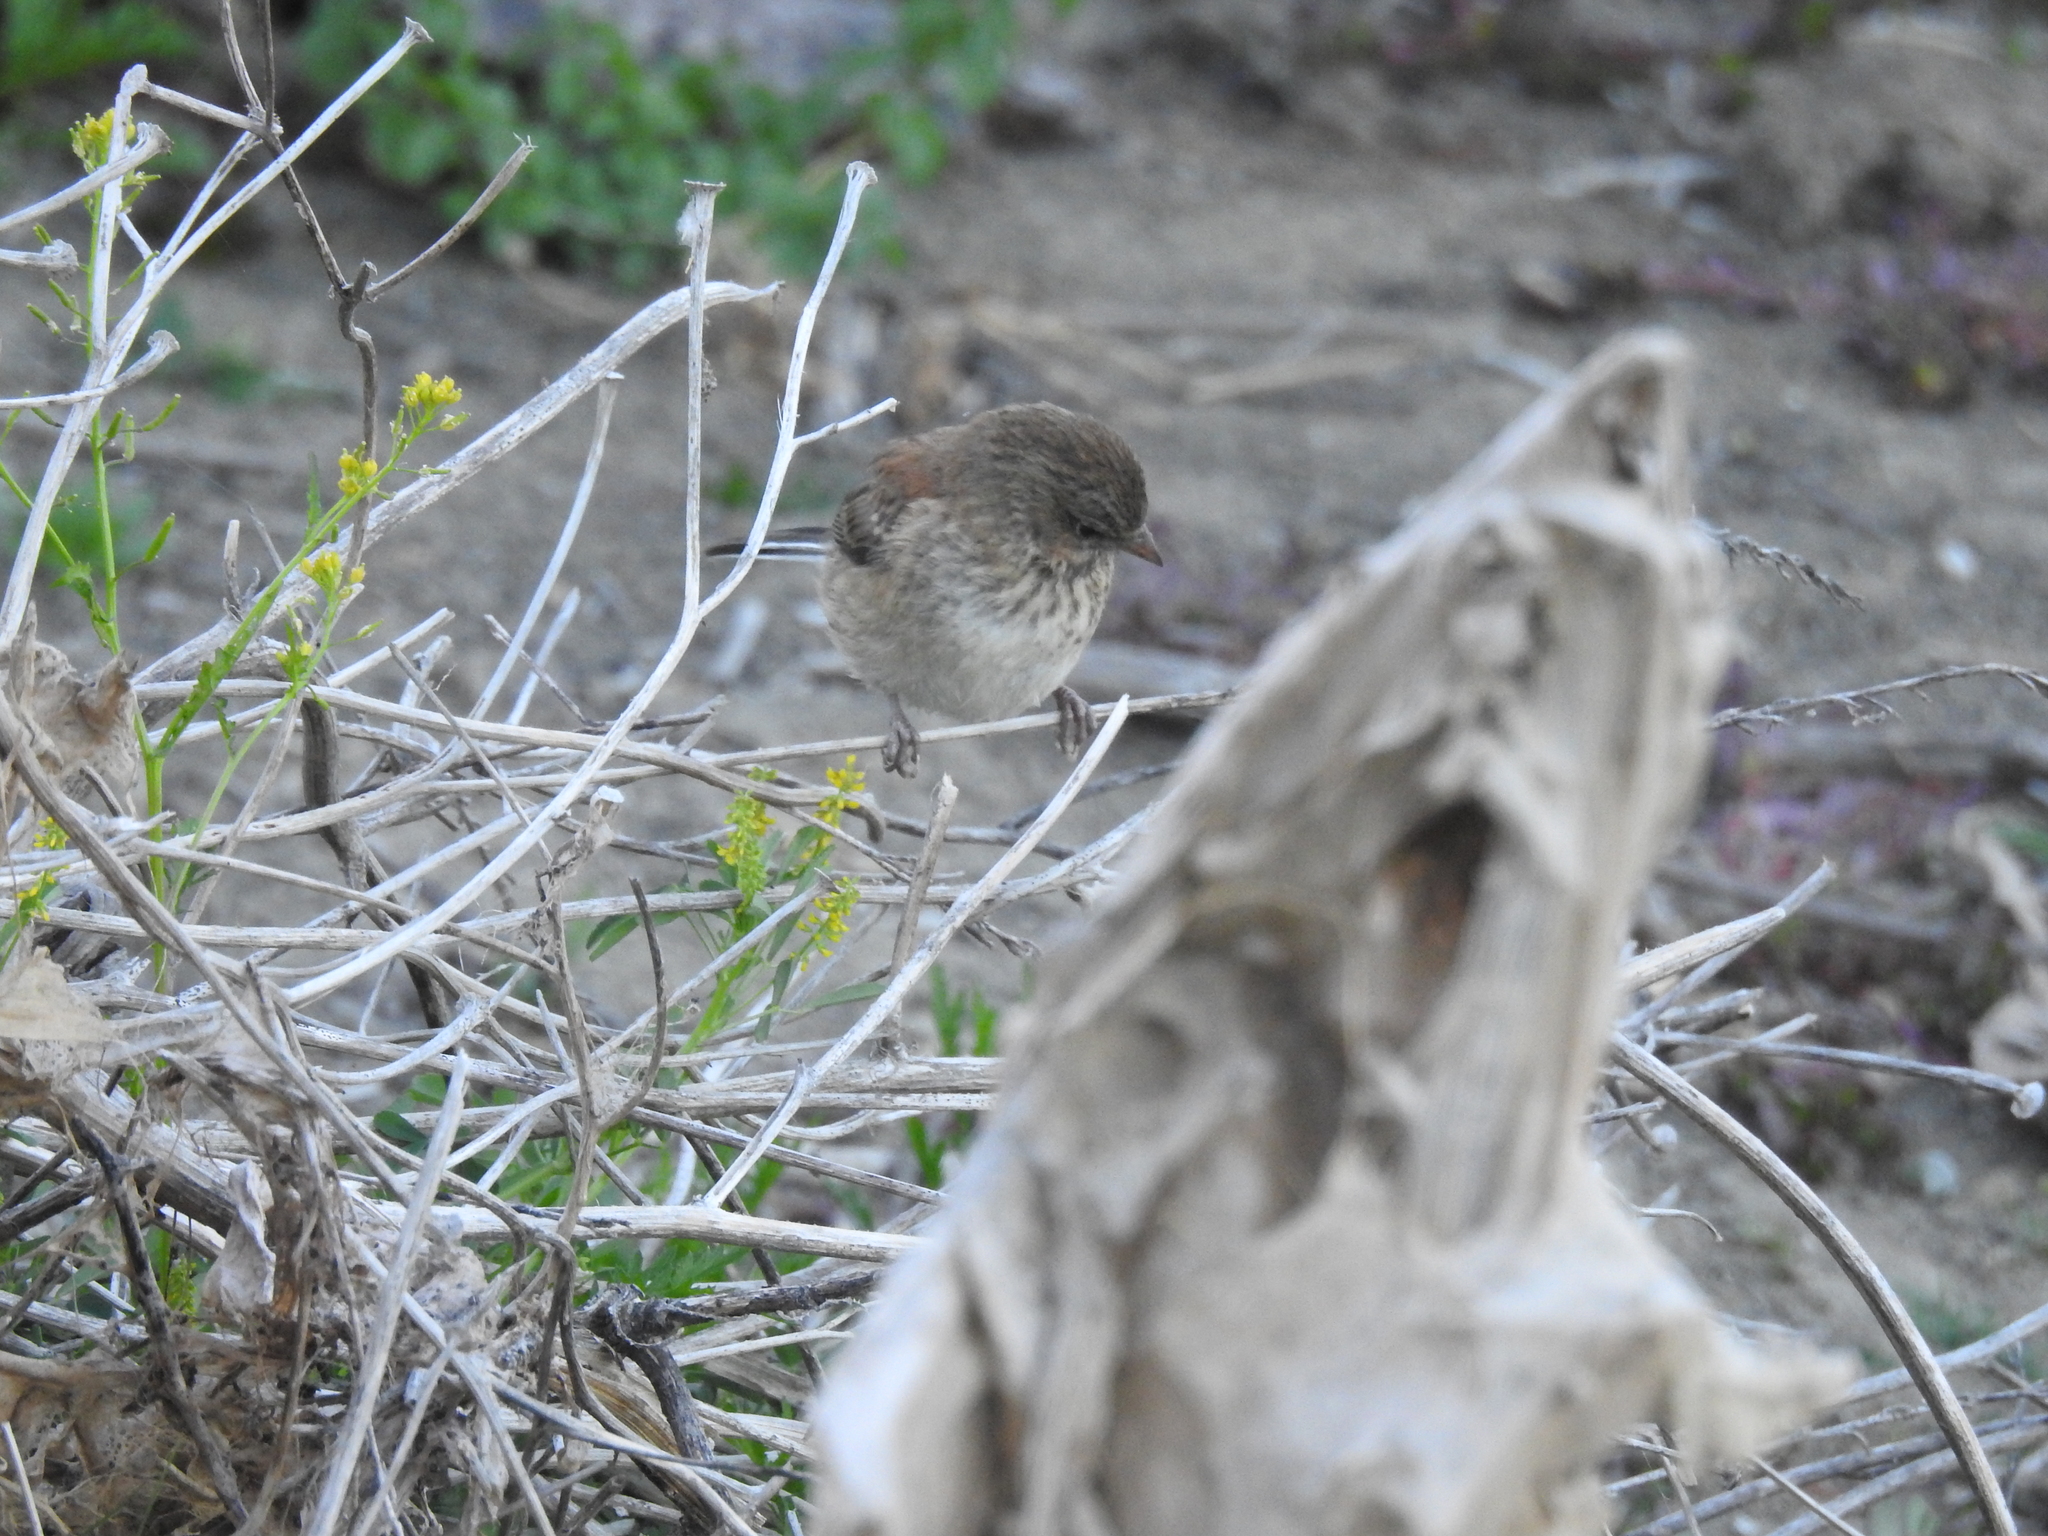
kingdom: Animalia
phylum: Chordata
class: Aves
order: Passeriformes
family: Passerellidae
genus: Junco
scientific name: Junco hyemalis
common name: Dark-eyed junco
